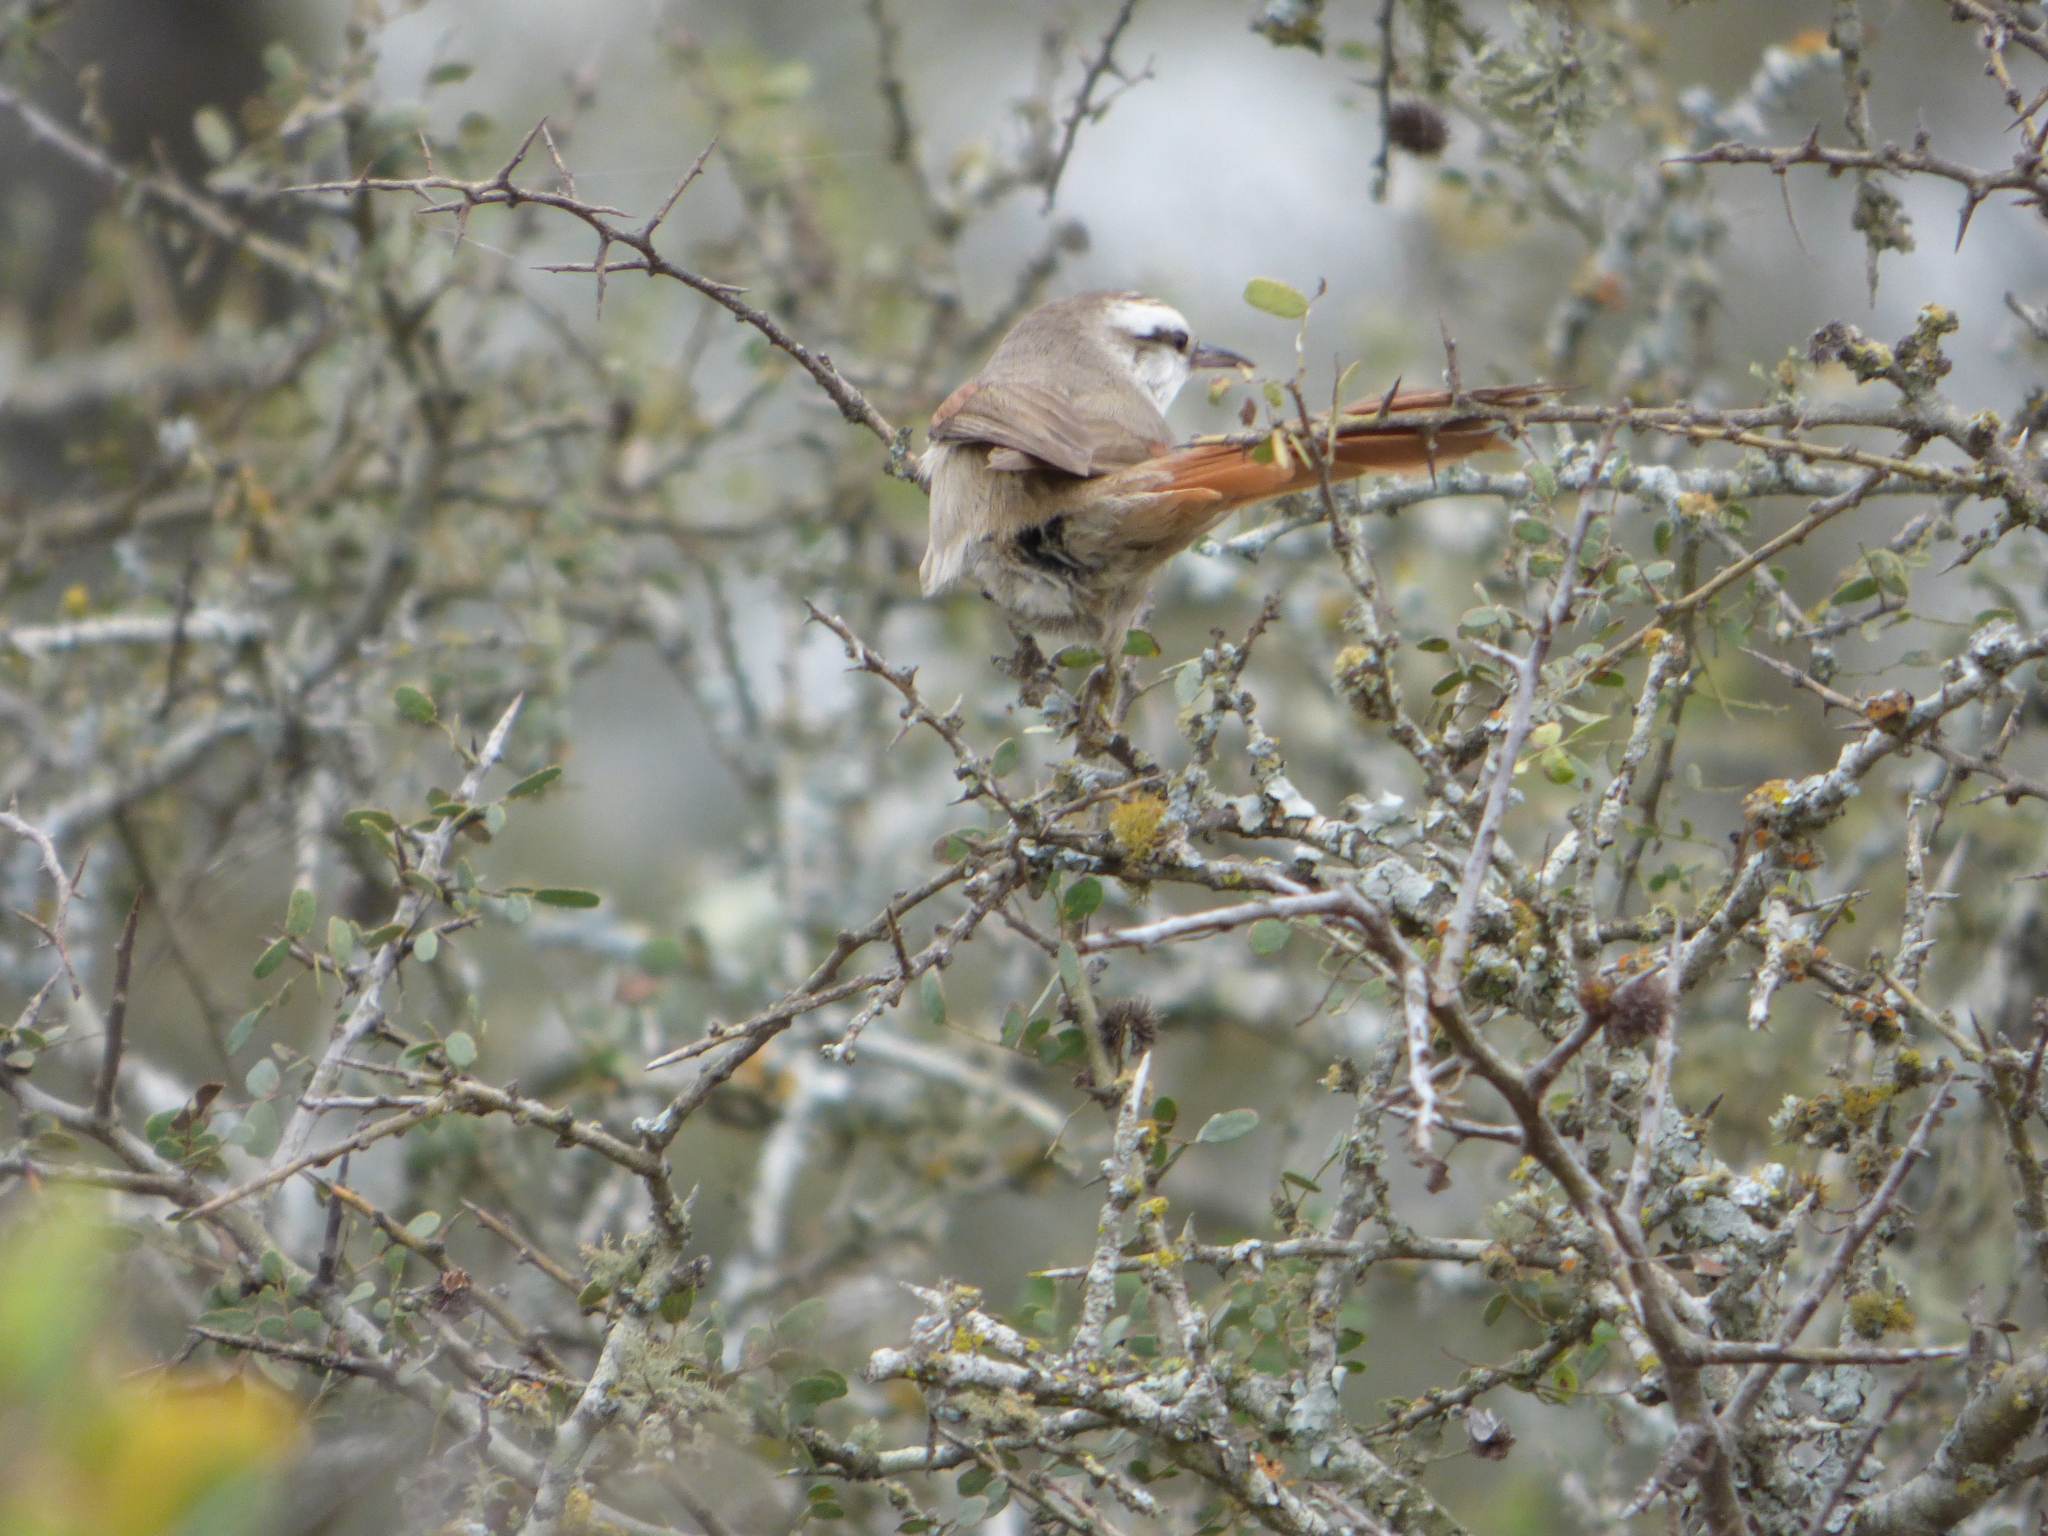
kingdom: Animalia
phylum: Chordata
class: Aves
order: Passeriformes
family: Furnariidae
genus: Cranioleuca
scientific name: Cranioleuca pyrrhophia
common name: Stripe-crowned spinetail
